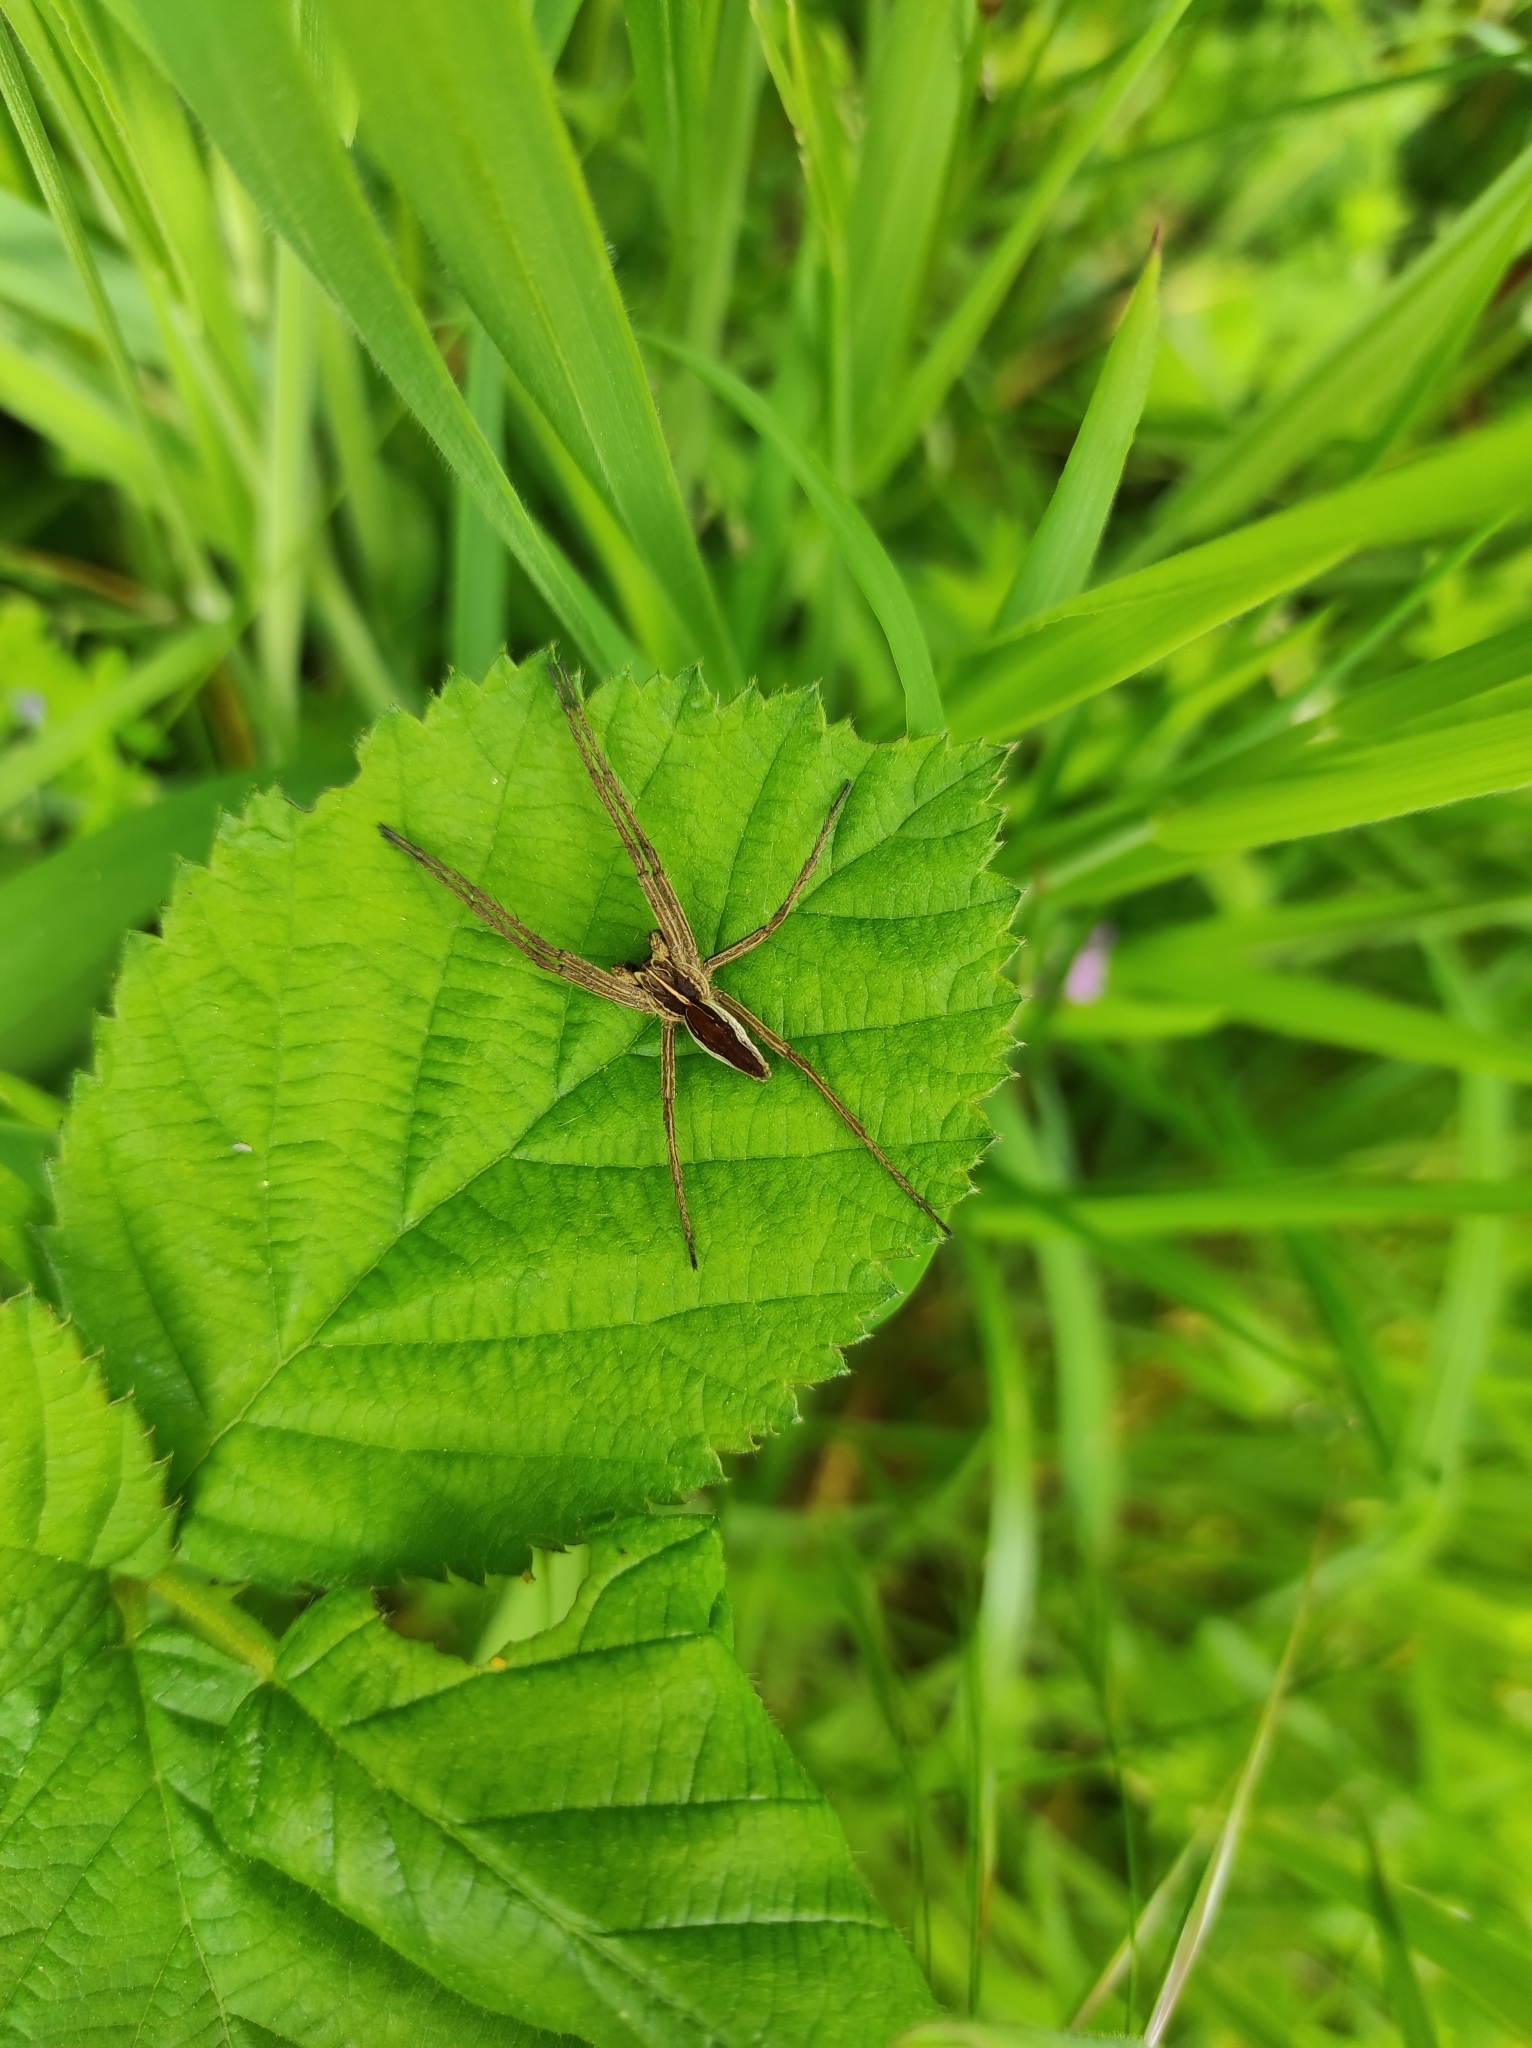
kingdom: Animalia
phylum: Arthropoda
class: Arachnida
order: Araneae
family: Pisauridae
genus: Pisaura
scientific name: Pisaura mirabilis
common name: Tent spider
